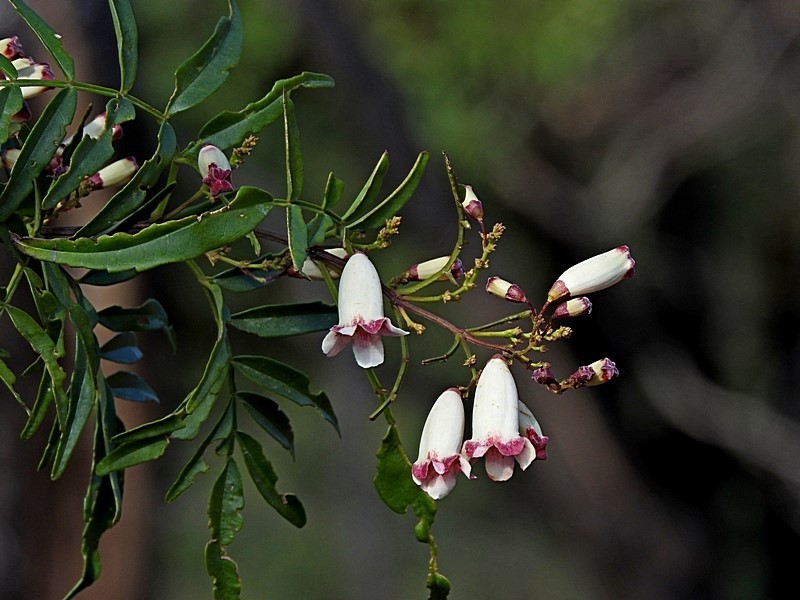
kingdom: Plantae
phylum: Tracheophyta
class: Magnoliopsida
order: Lamiales
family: Bignoniaceae
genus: Pandorea
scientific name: Pandorea pandorana
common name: Wonga-wonga-vine
